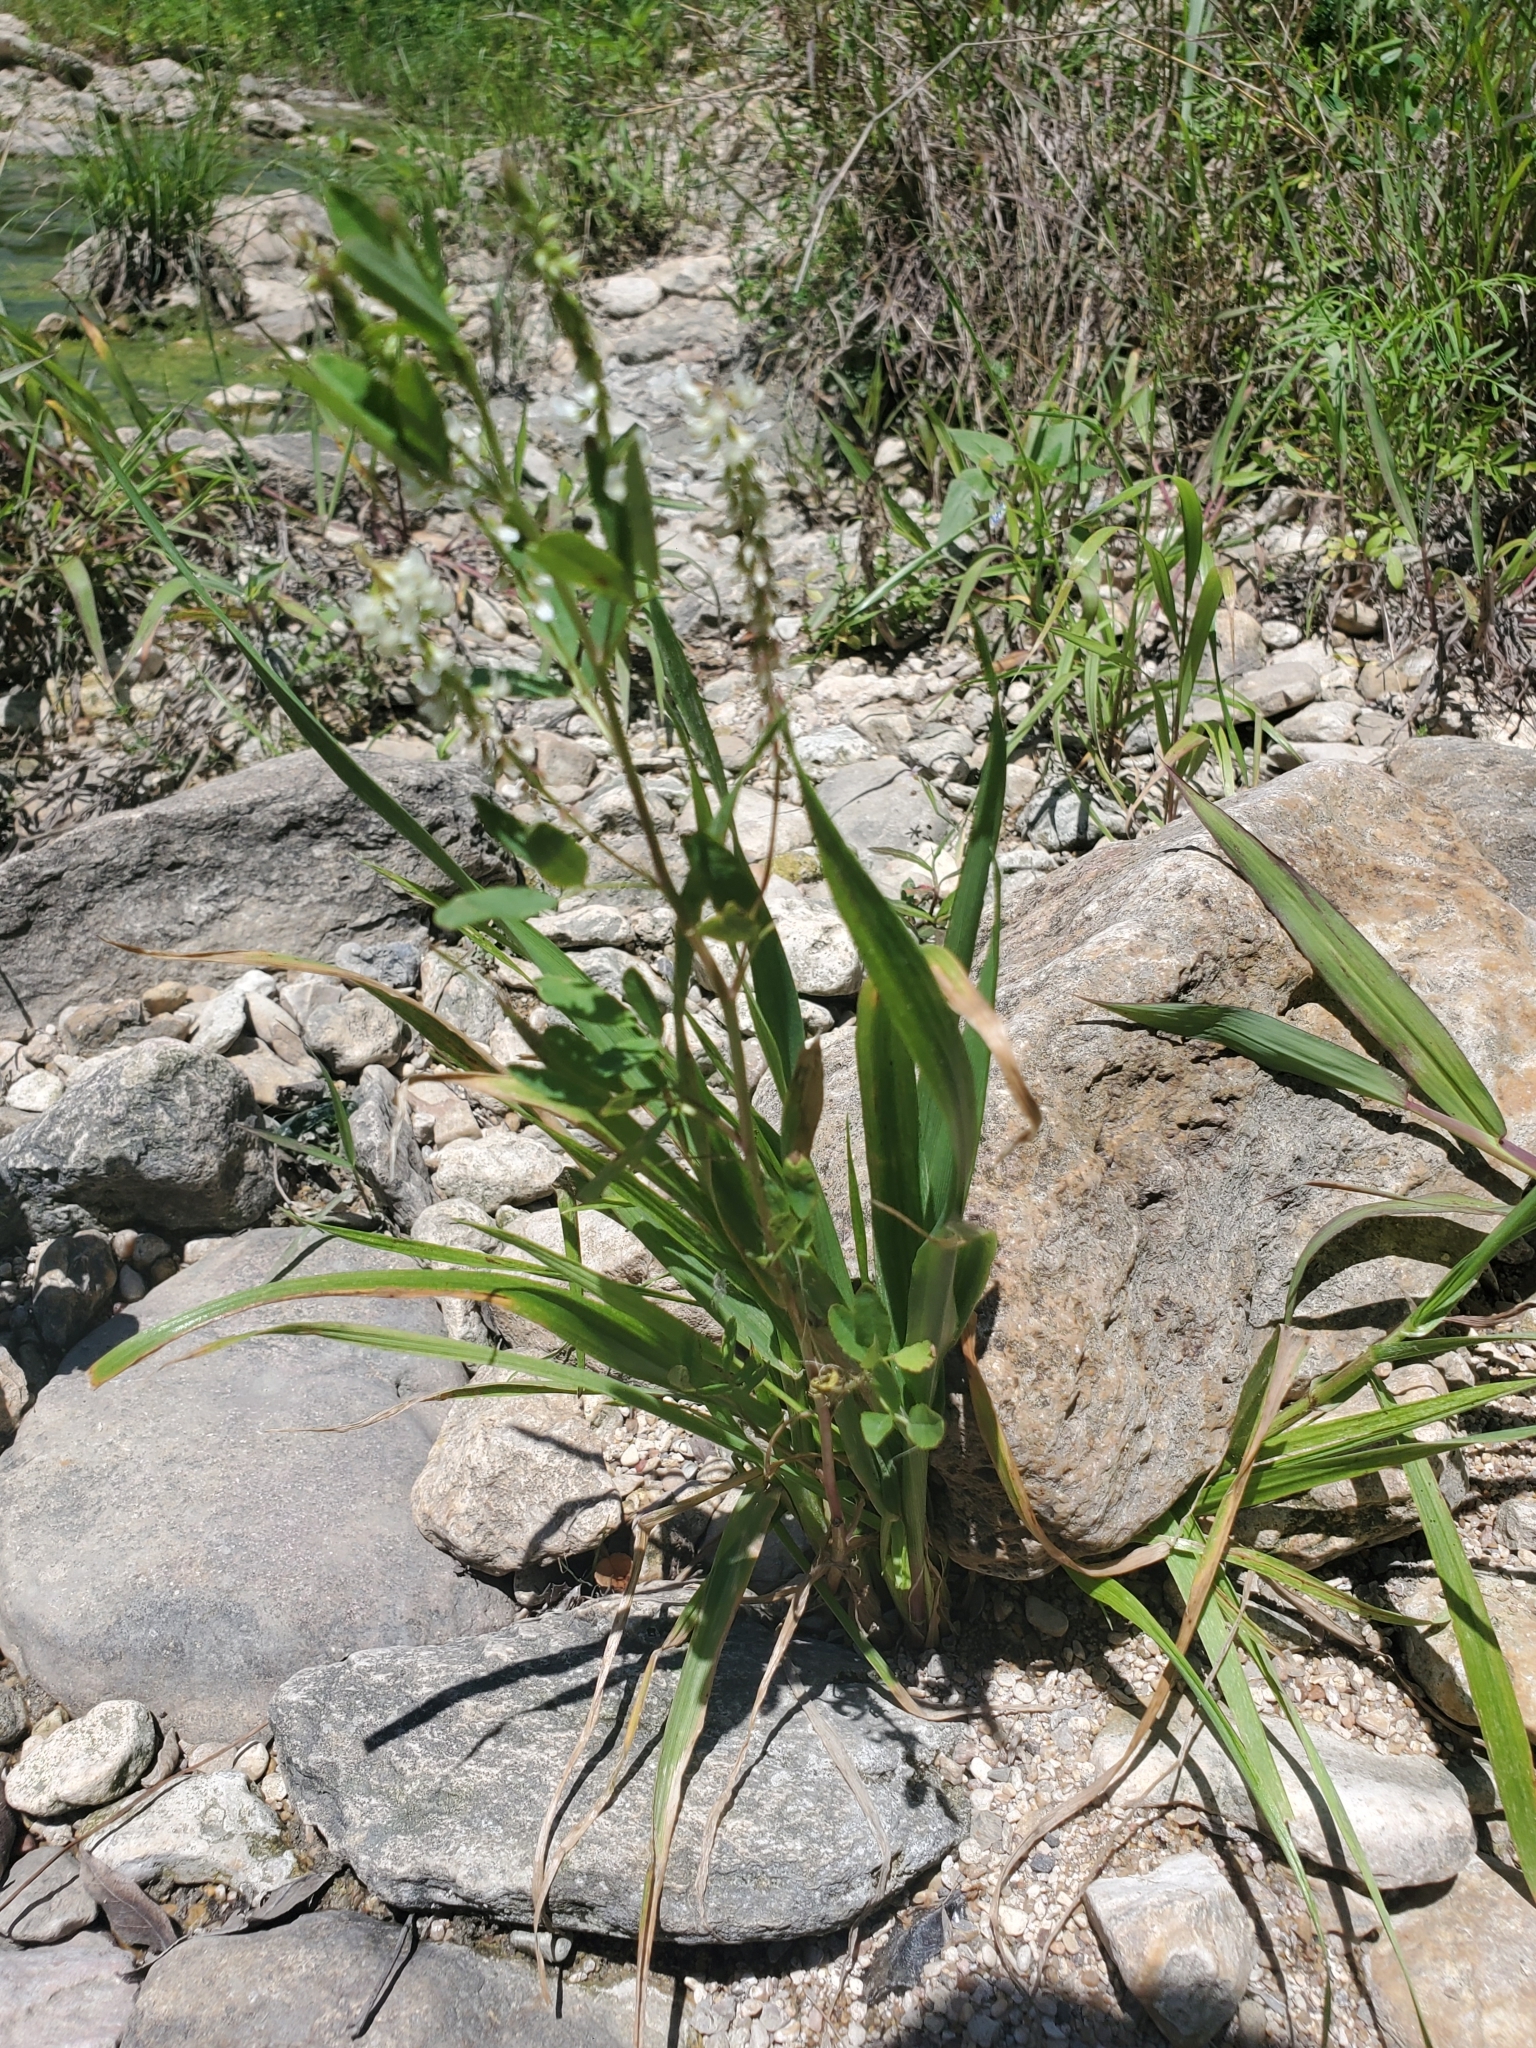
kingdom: Plantae
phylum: Tracheophyta
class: Magnoliopsida
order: Fabales
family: Fabaceae
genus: Melilotus
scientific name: Melilotus albus
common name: White melilot
